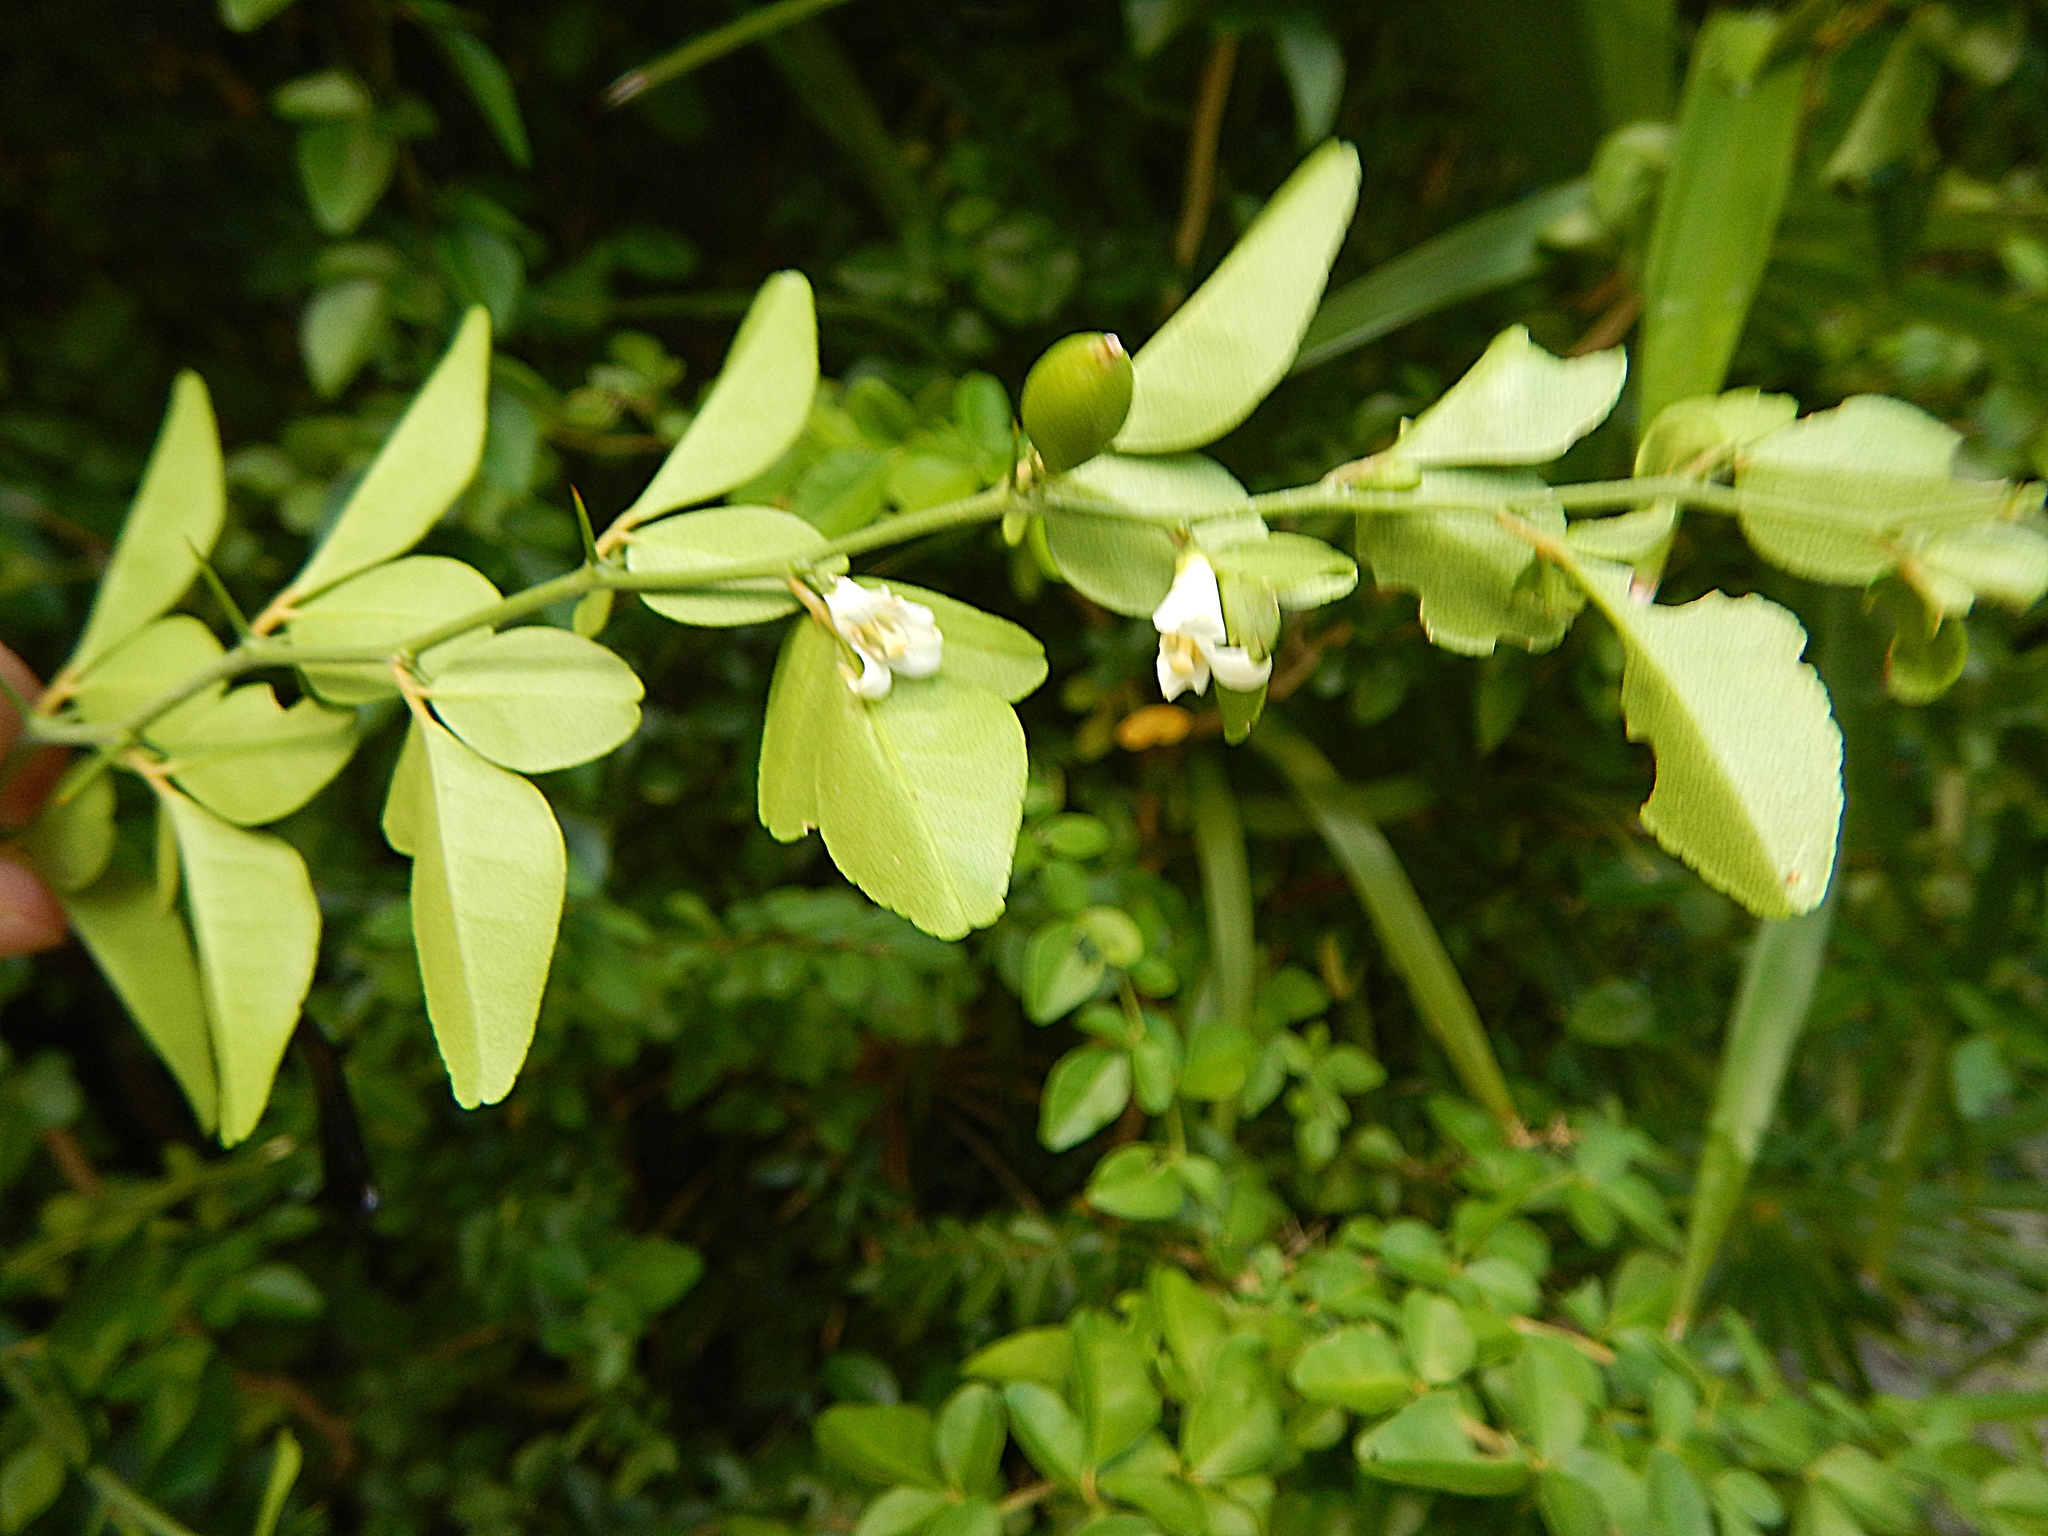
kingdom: Plantae
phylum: Tracheophyta
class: Magnoliopsida
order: Sapindales
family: Rutaceae
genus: Triphasia
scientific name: Triphasia trifolia
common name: Limeberry
